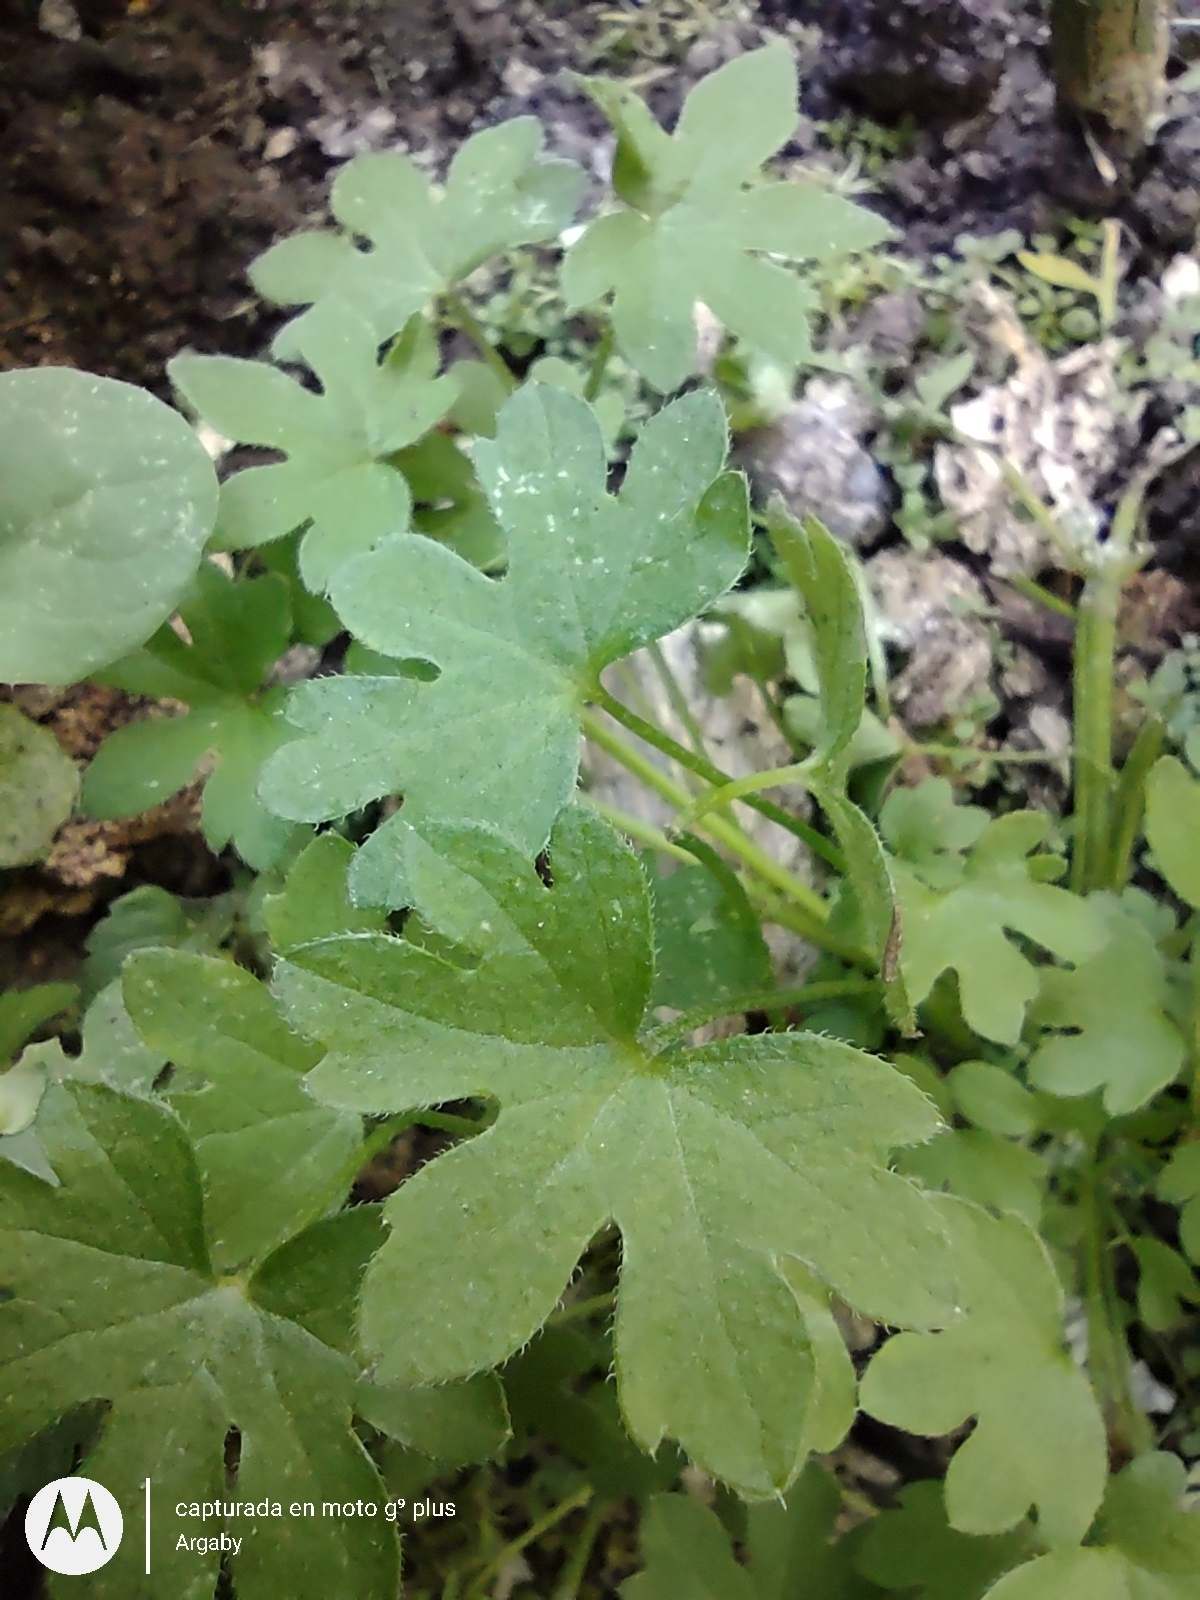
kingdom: Plantae
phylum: Tracheophyta
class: Magnoliopsida
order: Apiales
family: Apiaceae
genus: Bowlesia
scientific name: Bowlesia incana
